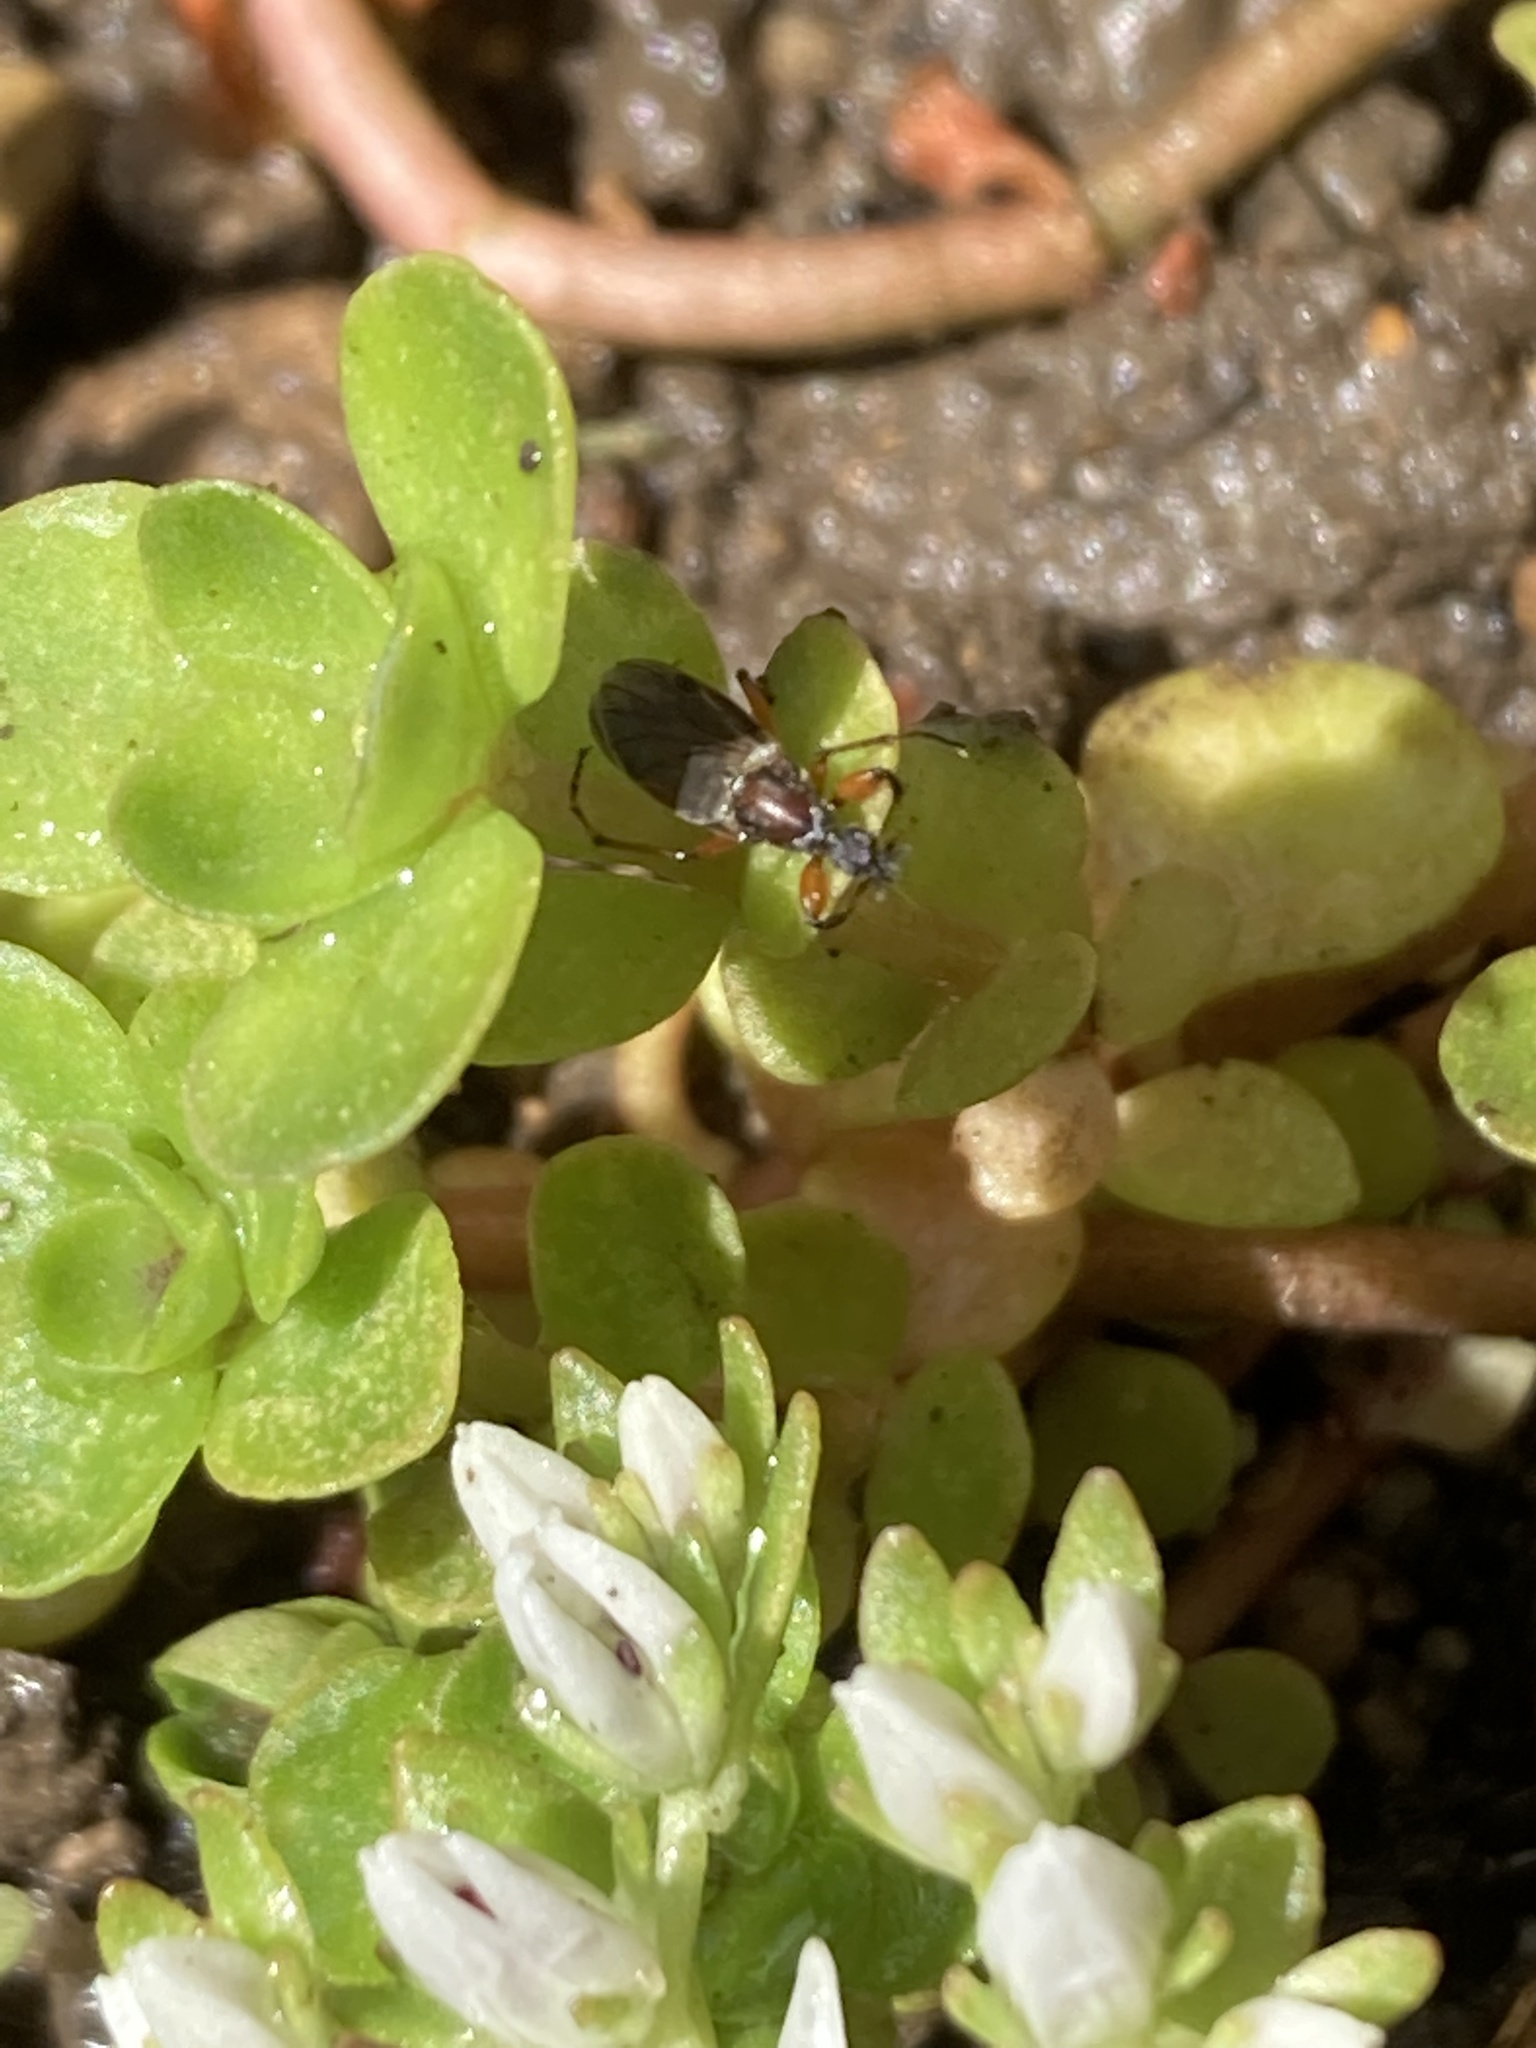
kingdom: Animalia
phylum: Arthropoda
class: Insecta
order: Diptera
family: Bibionidae
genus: Bibio
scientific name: Bibio articulatus
